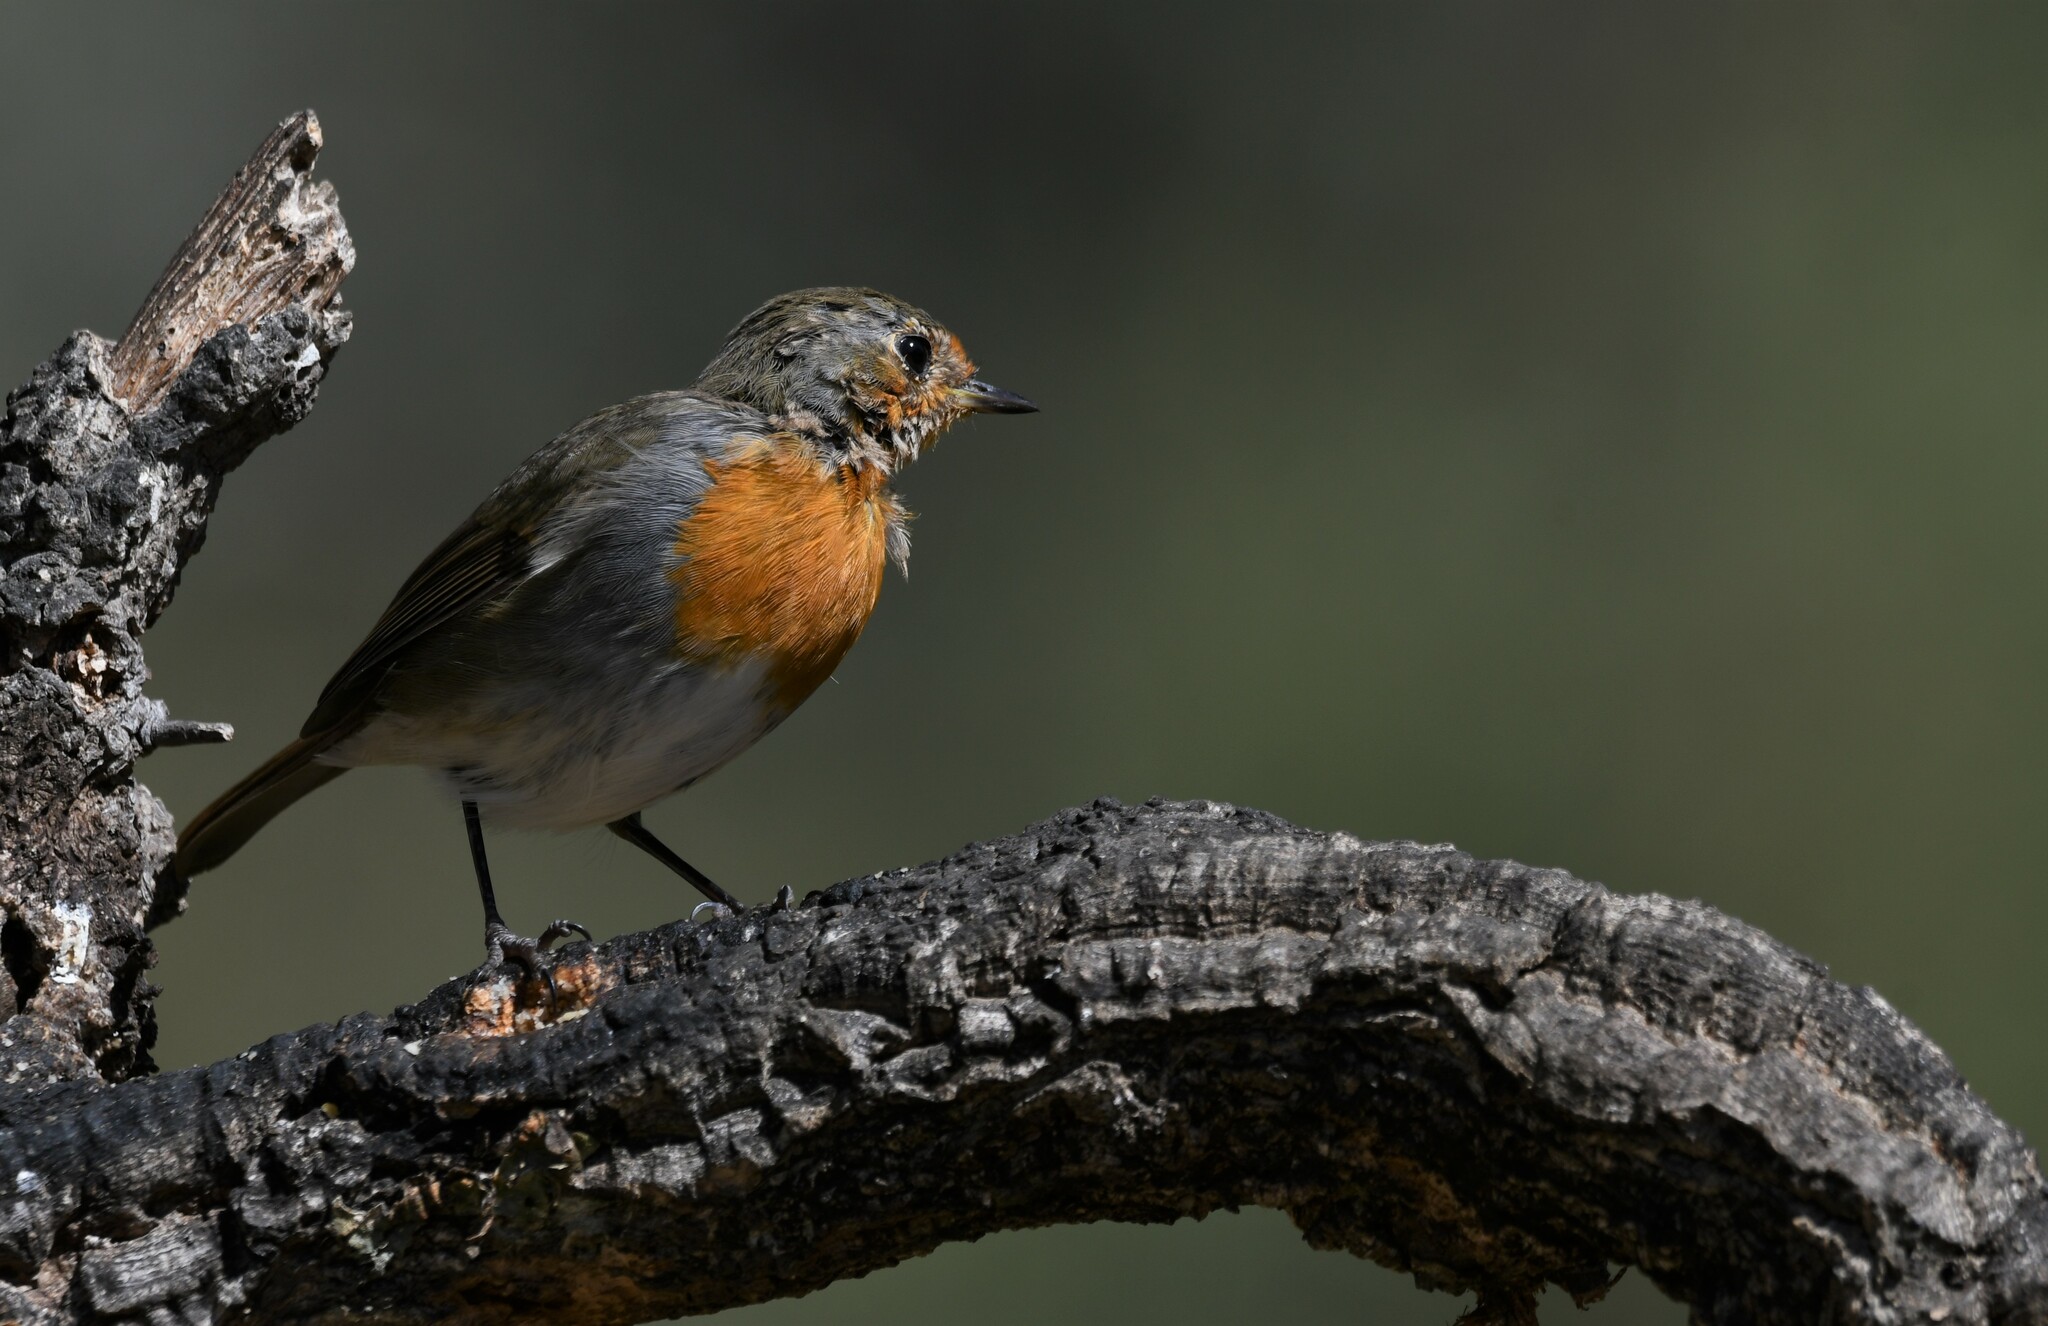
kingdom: Animalia
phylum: Chordata
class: Aves
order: Passeriformes
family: Muscicapidae
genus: Erithacus
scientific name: Erithacus rubecula
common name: European robin
